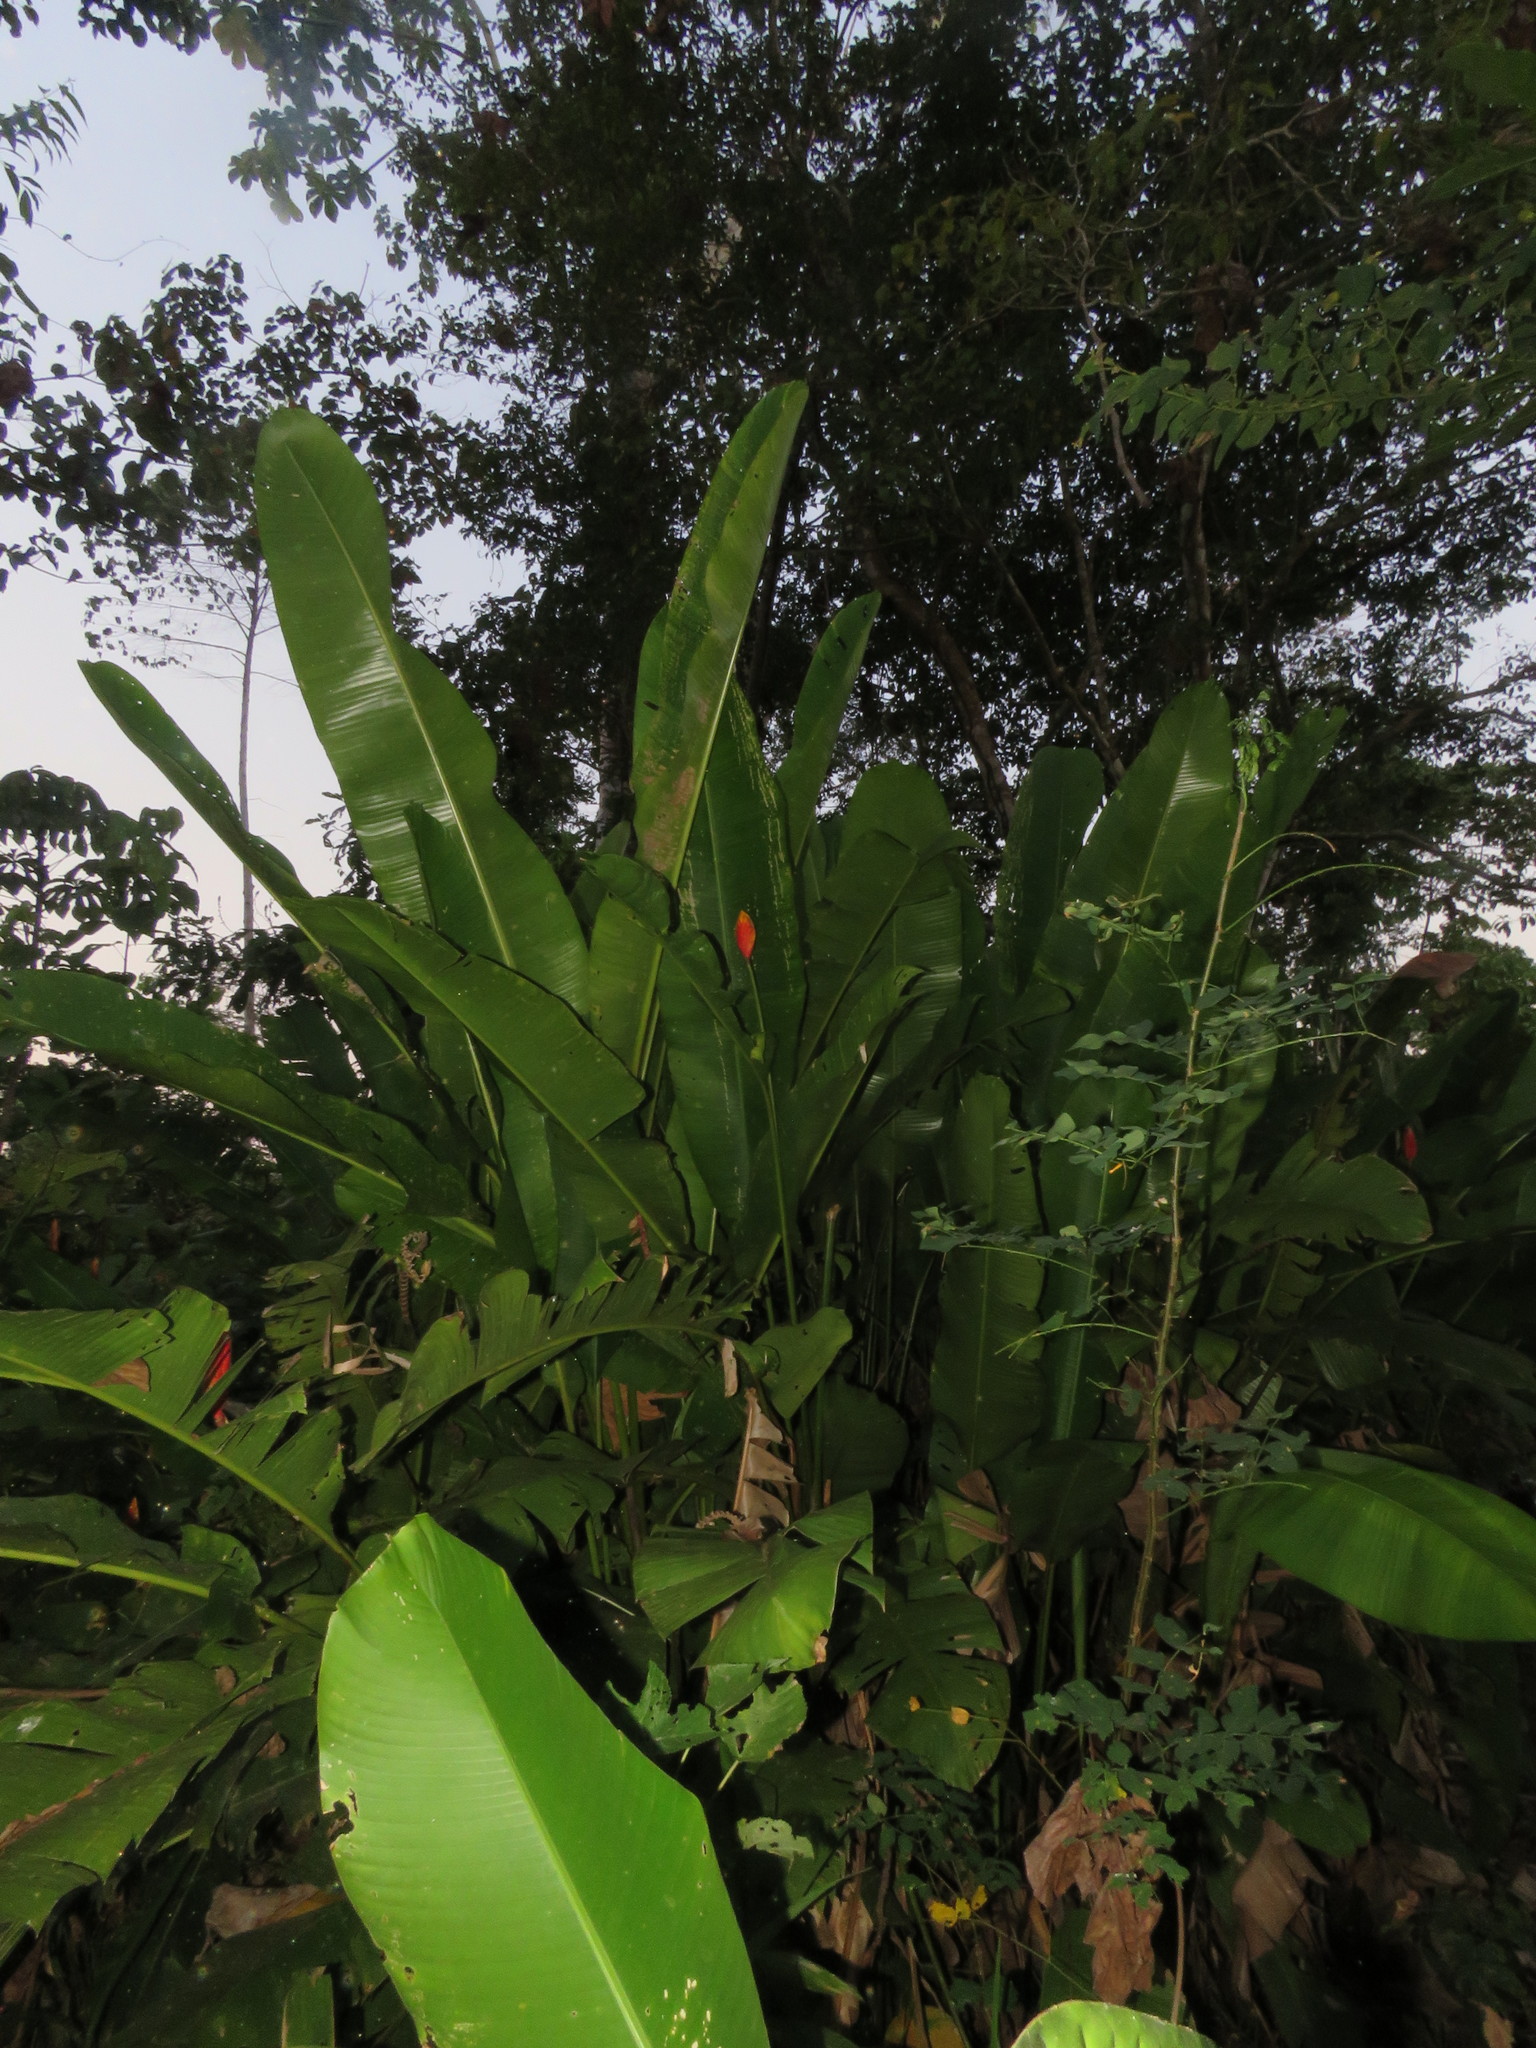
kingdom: Plantae
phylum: Tracheophyta
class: Liliopsida
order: Zingiberales
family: Heliconiaceae
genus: Heliconia
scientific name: Heliconia episcopalis
